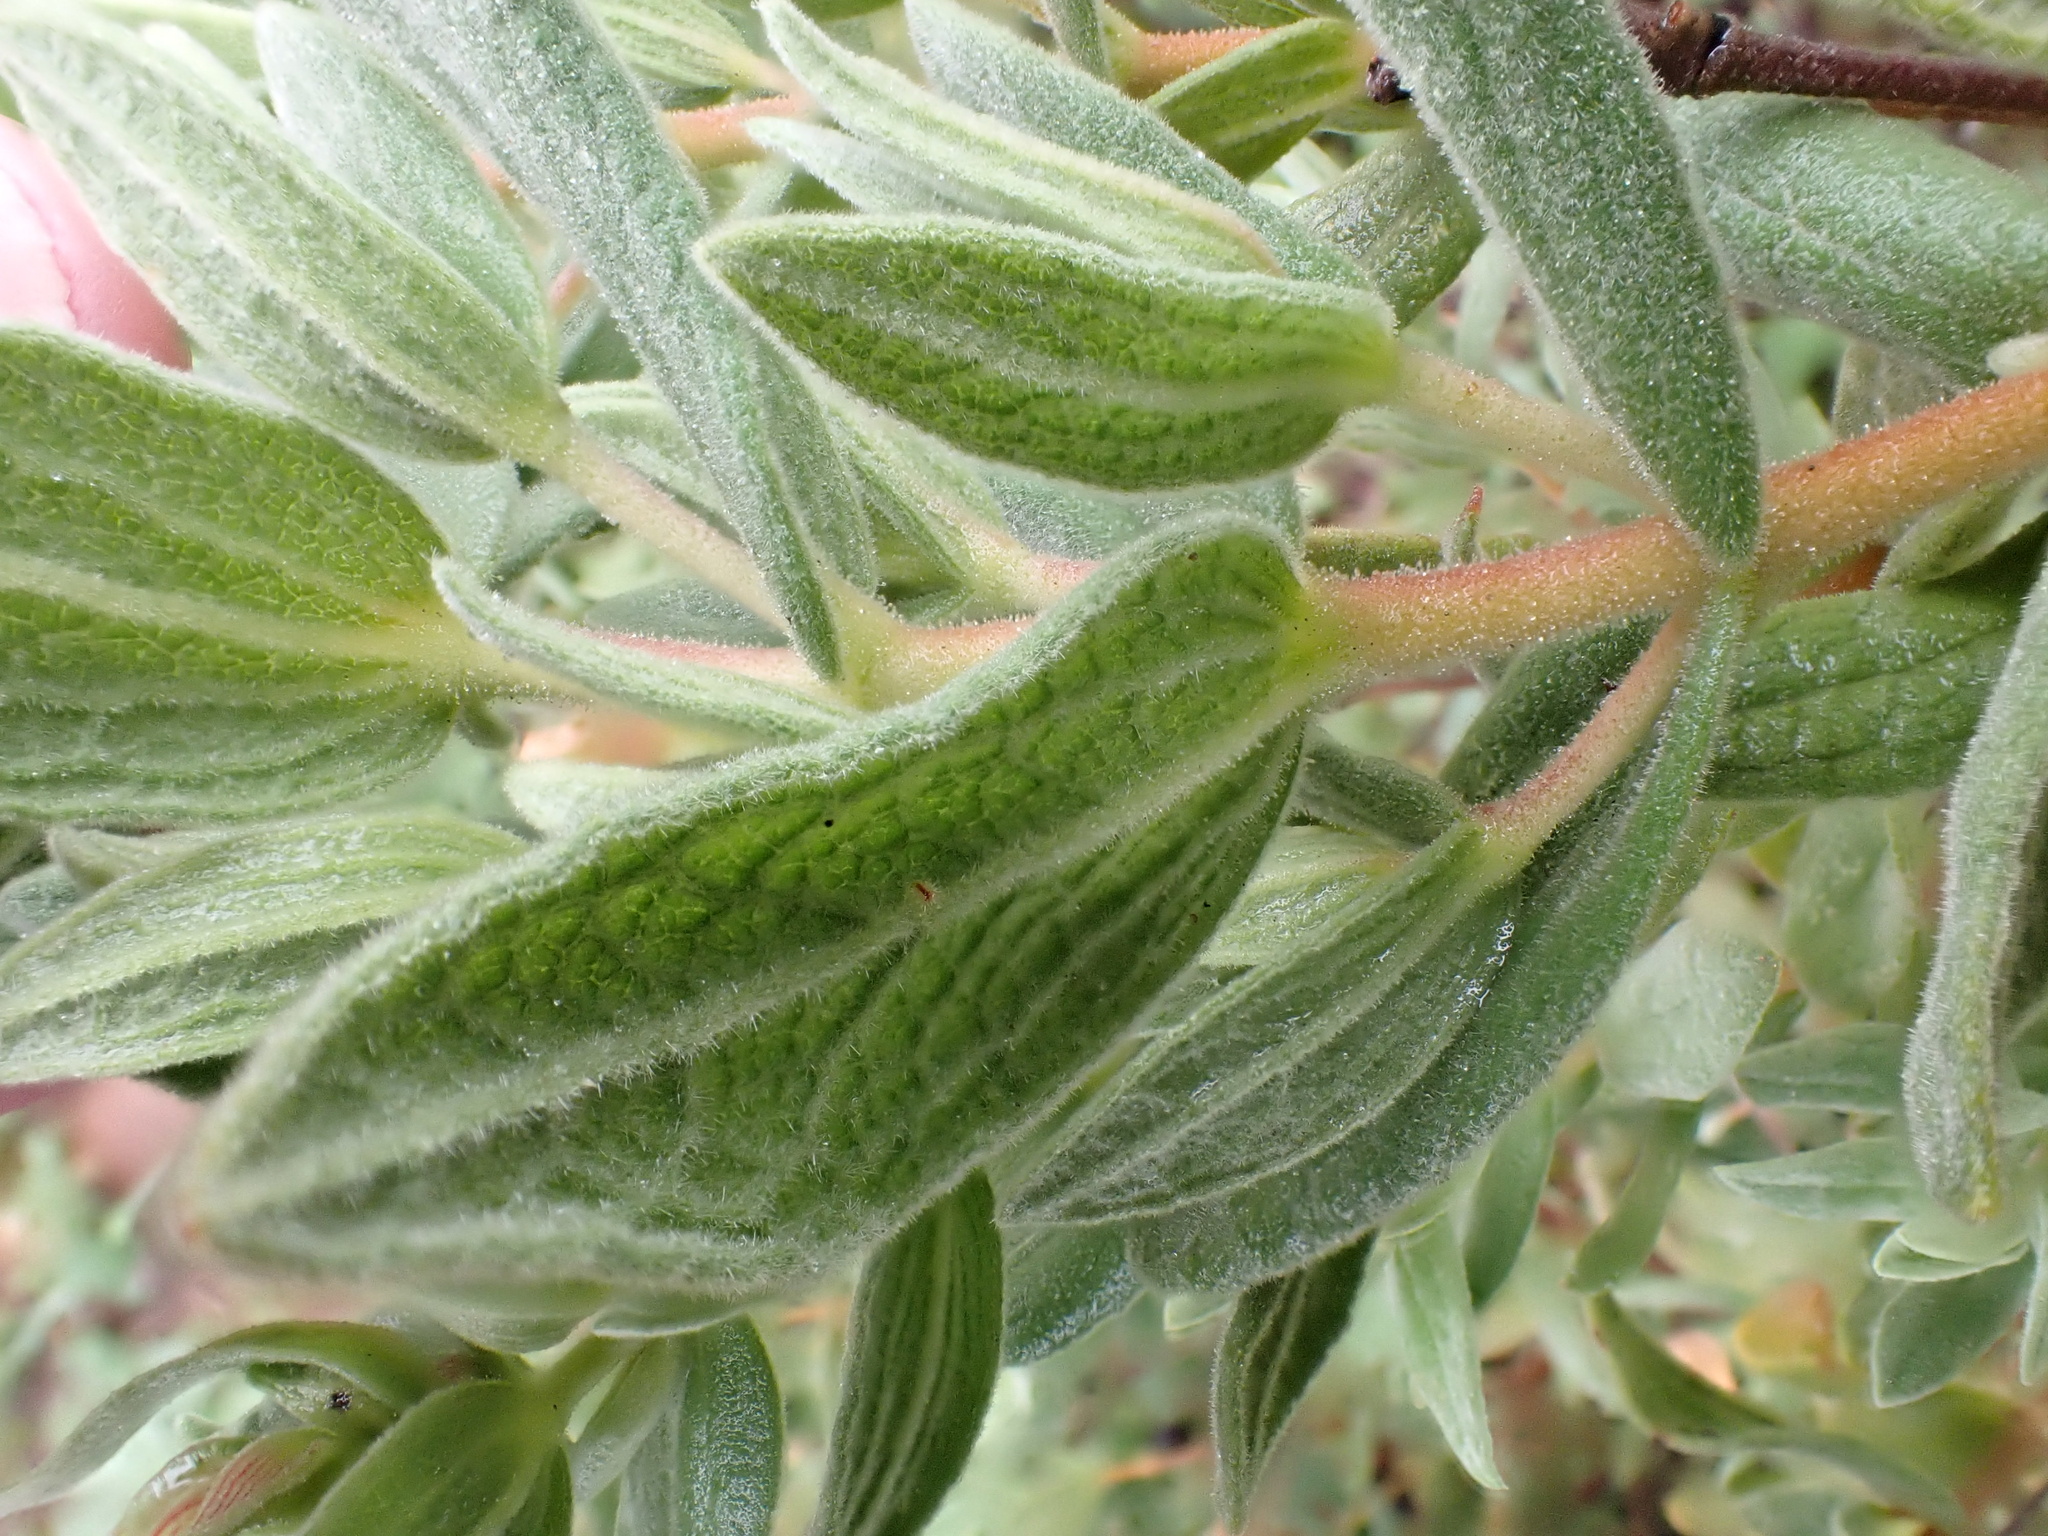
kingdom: Plantae
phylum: Tracheophyta
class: Magnoliopsida
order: Malvales
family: Cistaceae
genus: Cistus
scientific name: Cistus albidus
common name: White-leaf rock-rose
